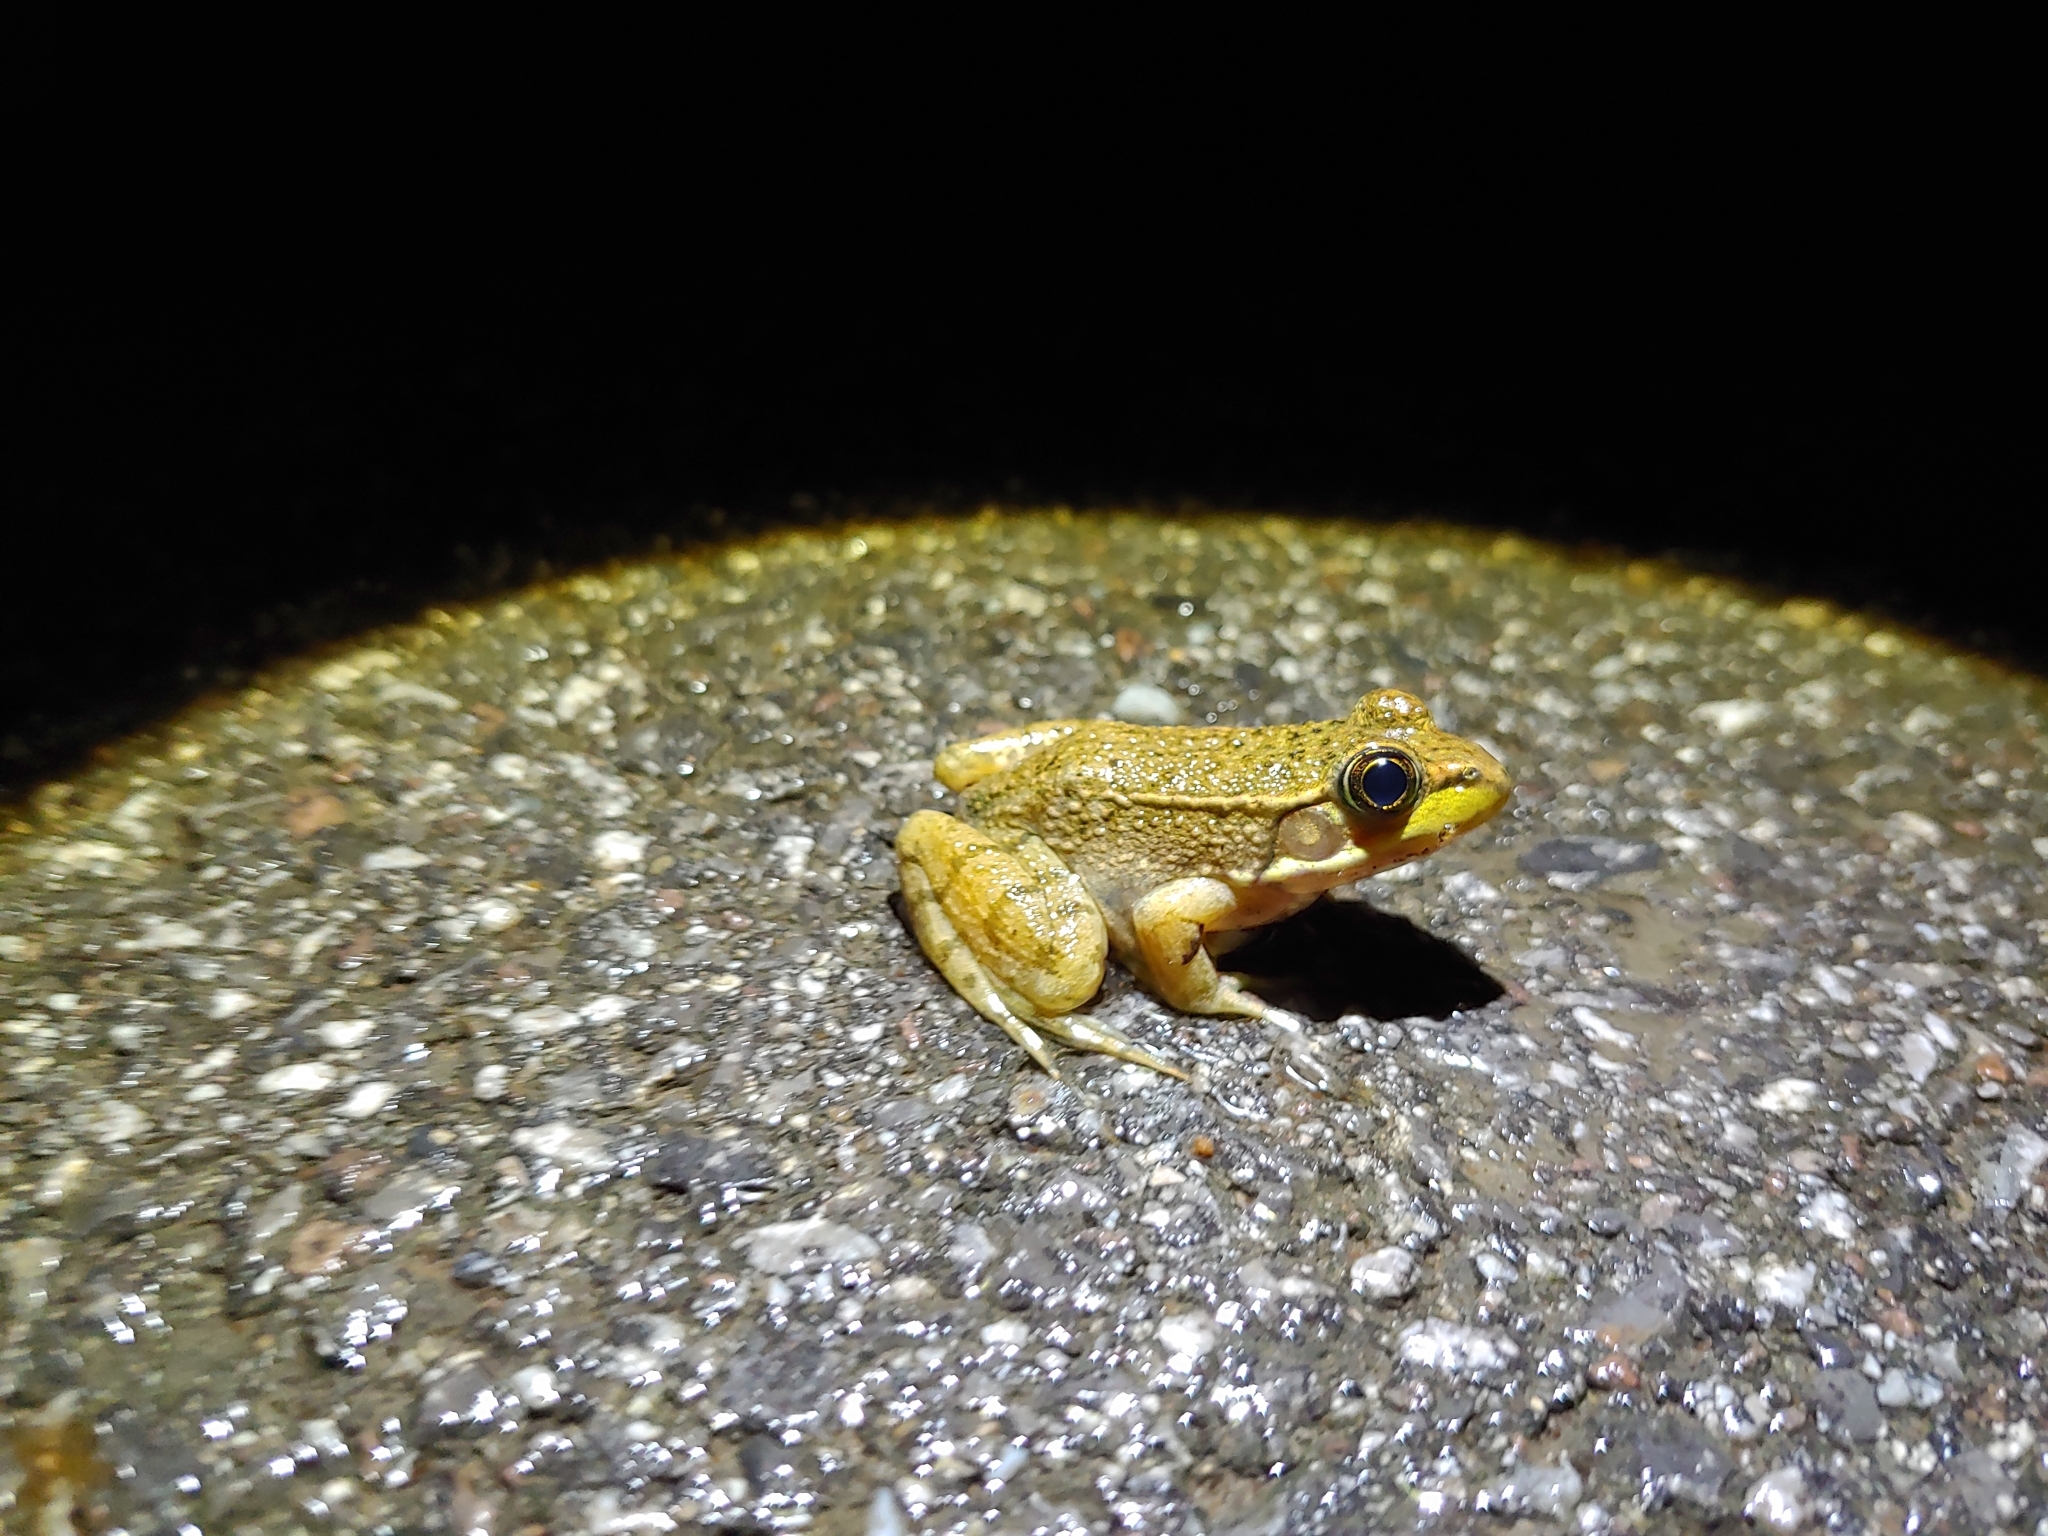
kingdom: Animalia
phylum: Chordata
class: Amphibia
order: Anura
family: Ranidae
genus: Lithobates
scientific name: Lithobates clamitans
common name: Green frog
